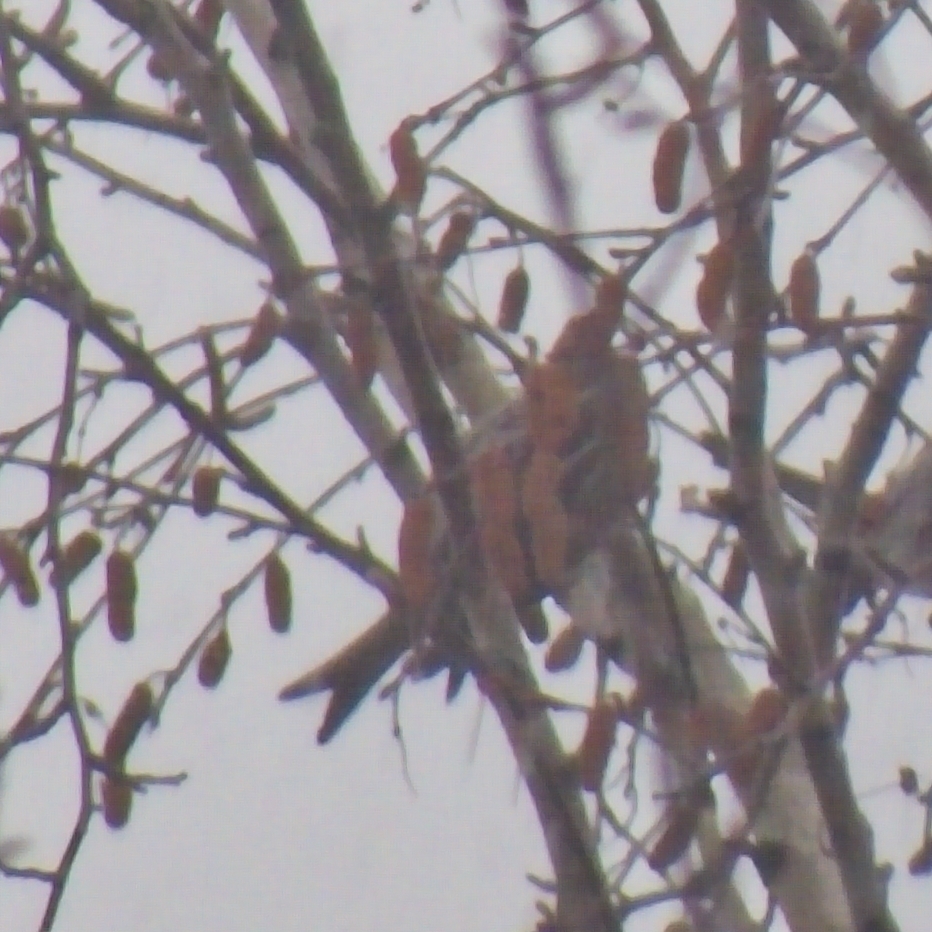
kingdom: Animalia
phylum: Chordata
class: Aves
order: Passeriformes
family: Fringillidae
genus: Acanthis
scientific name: Acanthis flammea
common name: Common redpoll
